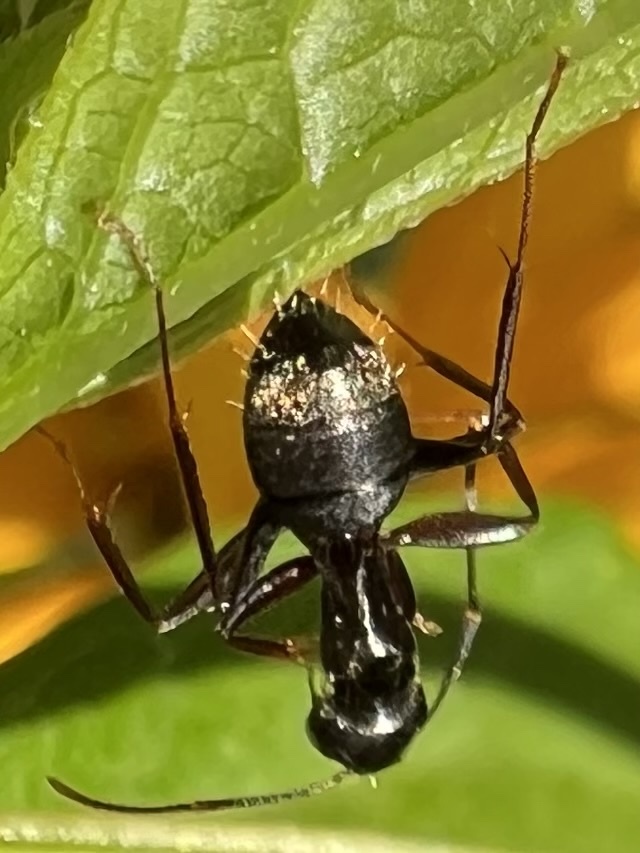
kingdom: Animalia
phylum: Arthropoda
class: Insecta
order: Hymenoptera
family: Formicidae
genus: Camponotus
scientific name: Camponotus pennsylvanicus
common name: Black carpenter ant
